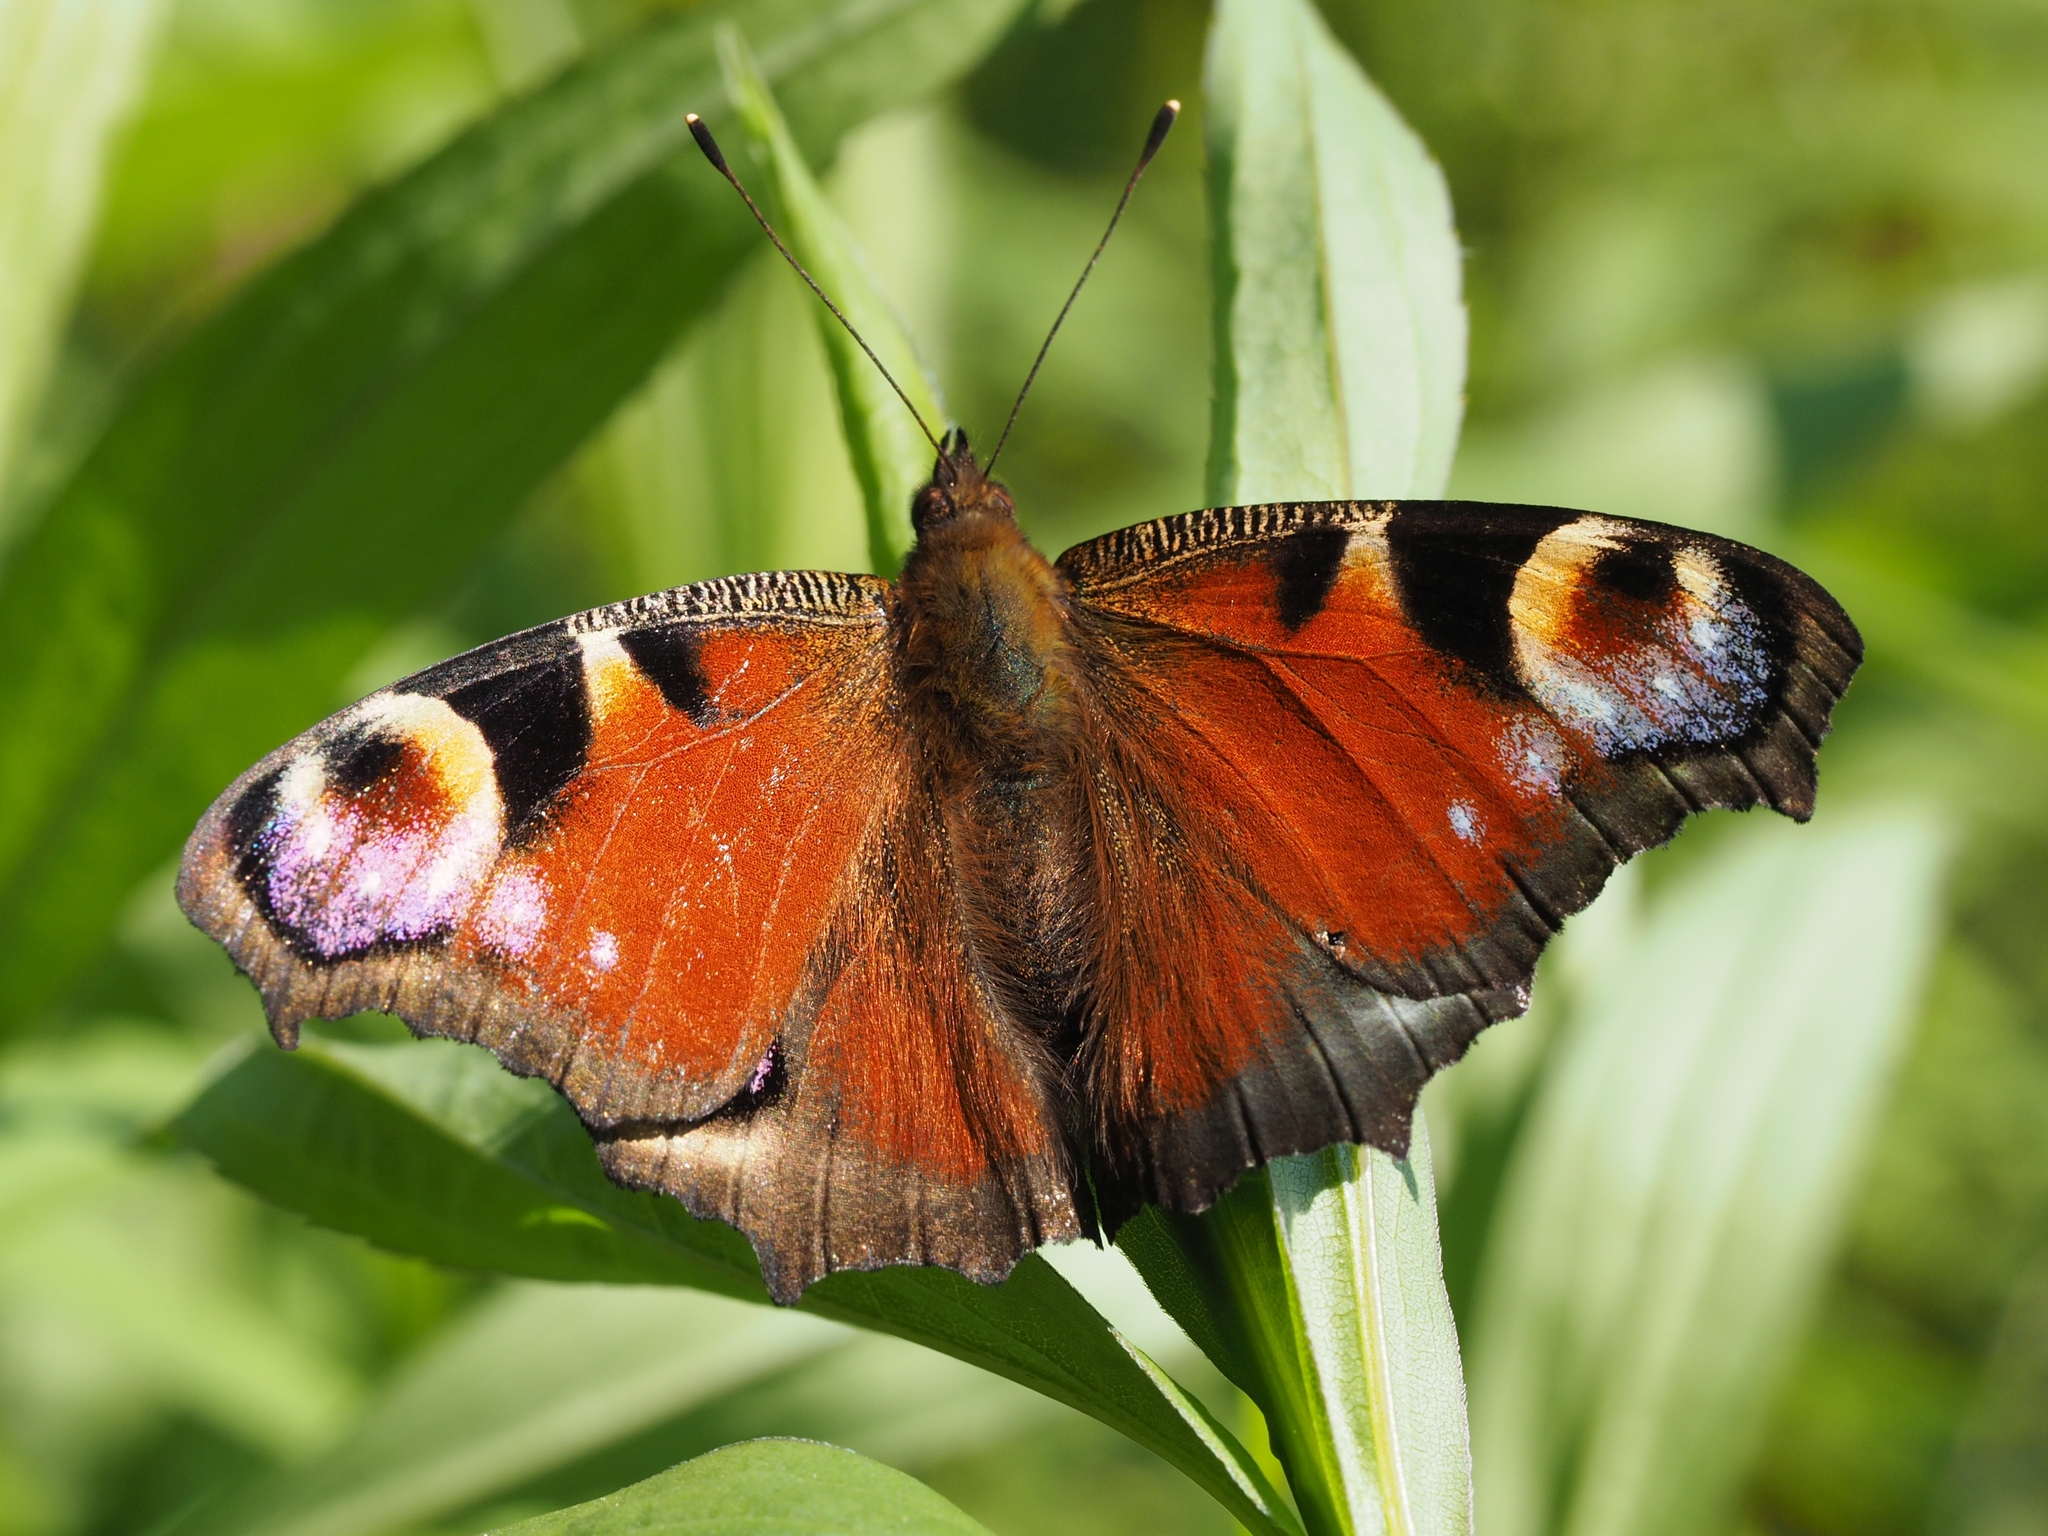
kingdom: Animalia
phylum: Arthropoda
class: Insecta
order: Lepidoptera
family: Nymphalidae
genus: Aglais
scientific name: Aglais io
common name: Peacock
